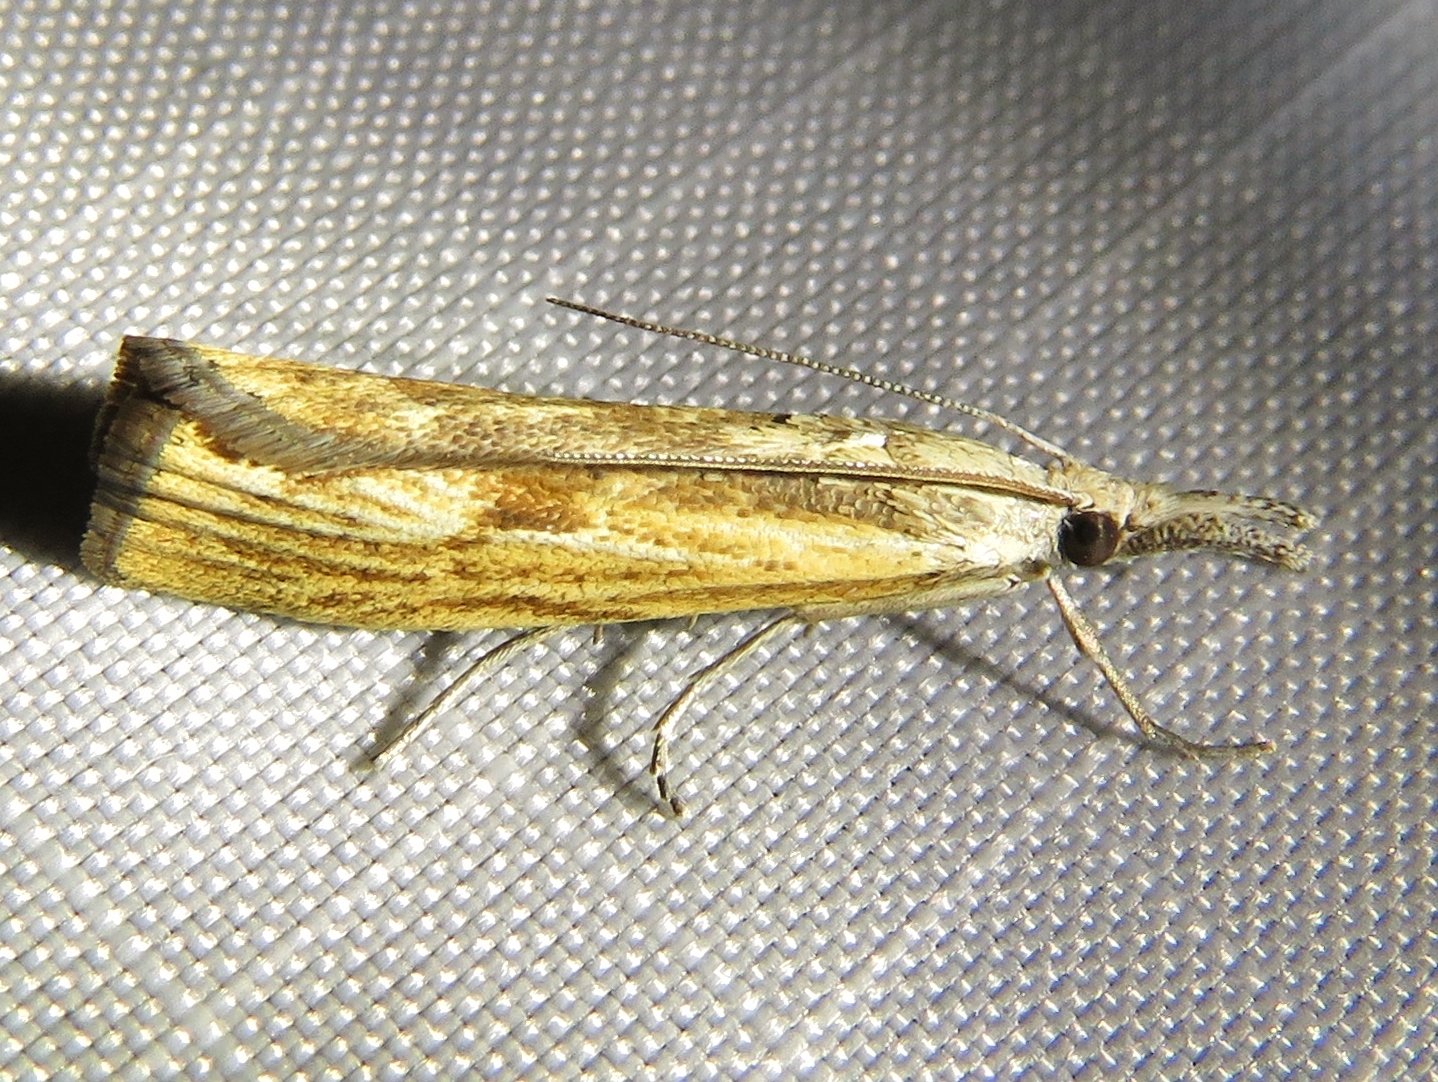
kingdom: Animalia
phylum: Arthropoda
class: Insecta
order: Lepidoptera
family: Crambidae
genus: Agriphila
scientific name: Agriphila inquinatella
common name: Barred grass-veneer
